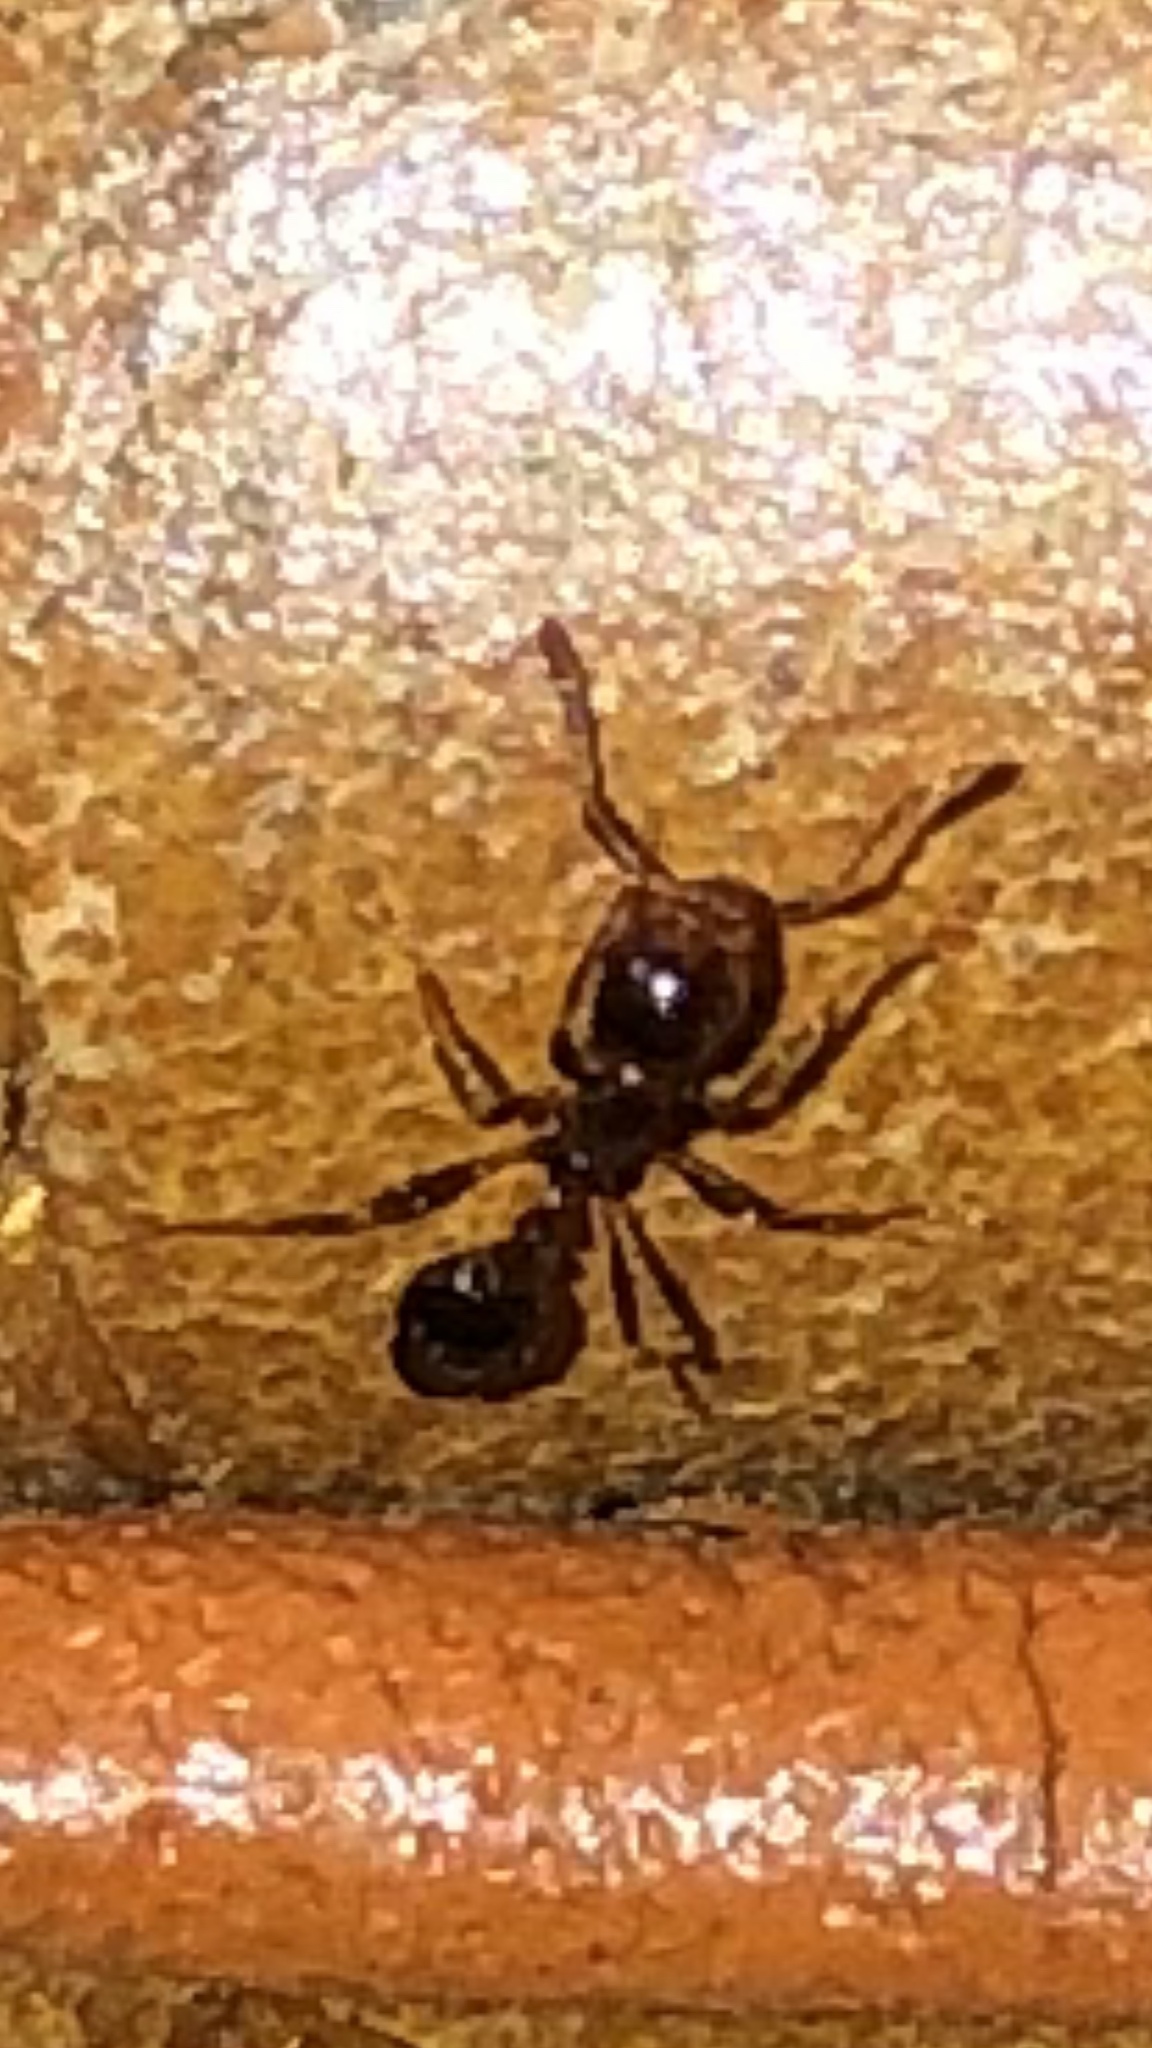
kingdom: Animalia
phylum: Arthropoda
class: Insecta
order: Hymenoptera
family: Formicidae
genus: Solenopsis
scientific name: Solenopsis invicta
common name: Red imported fire ant
